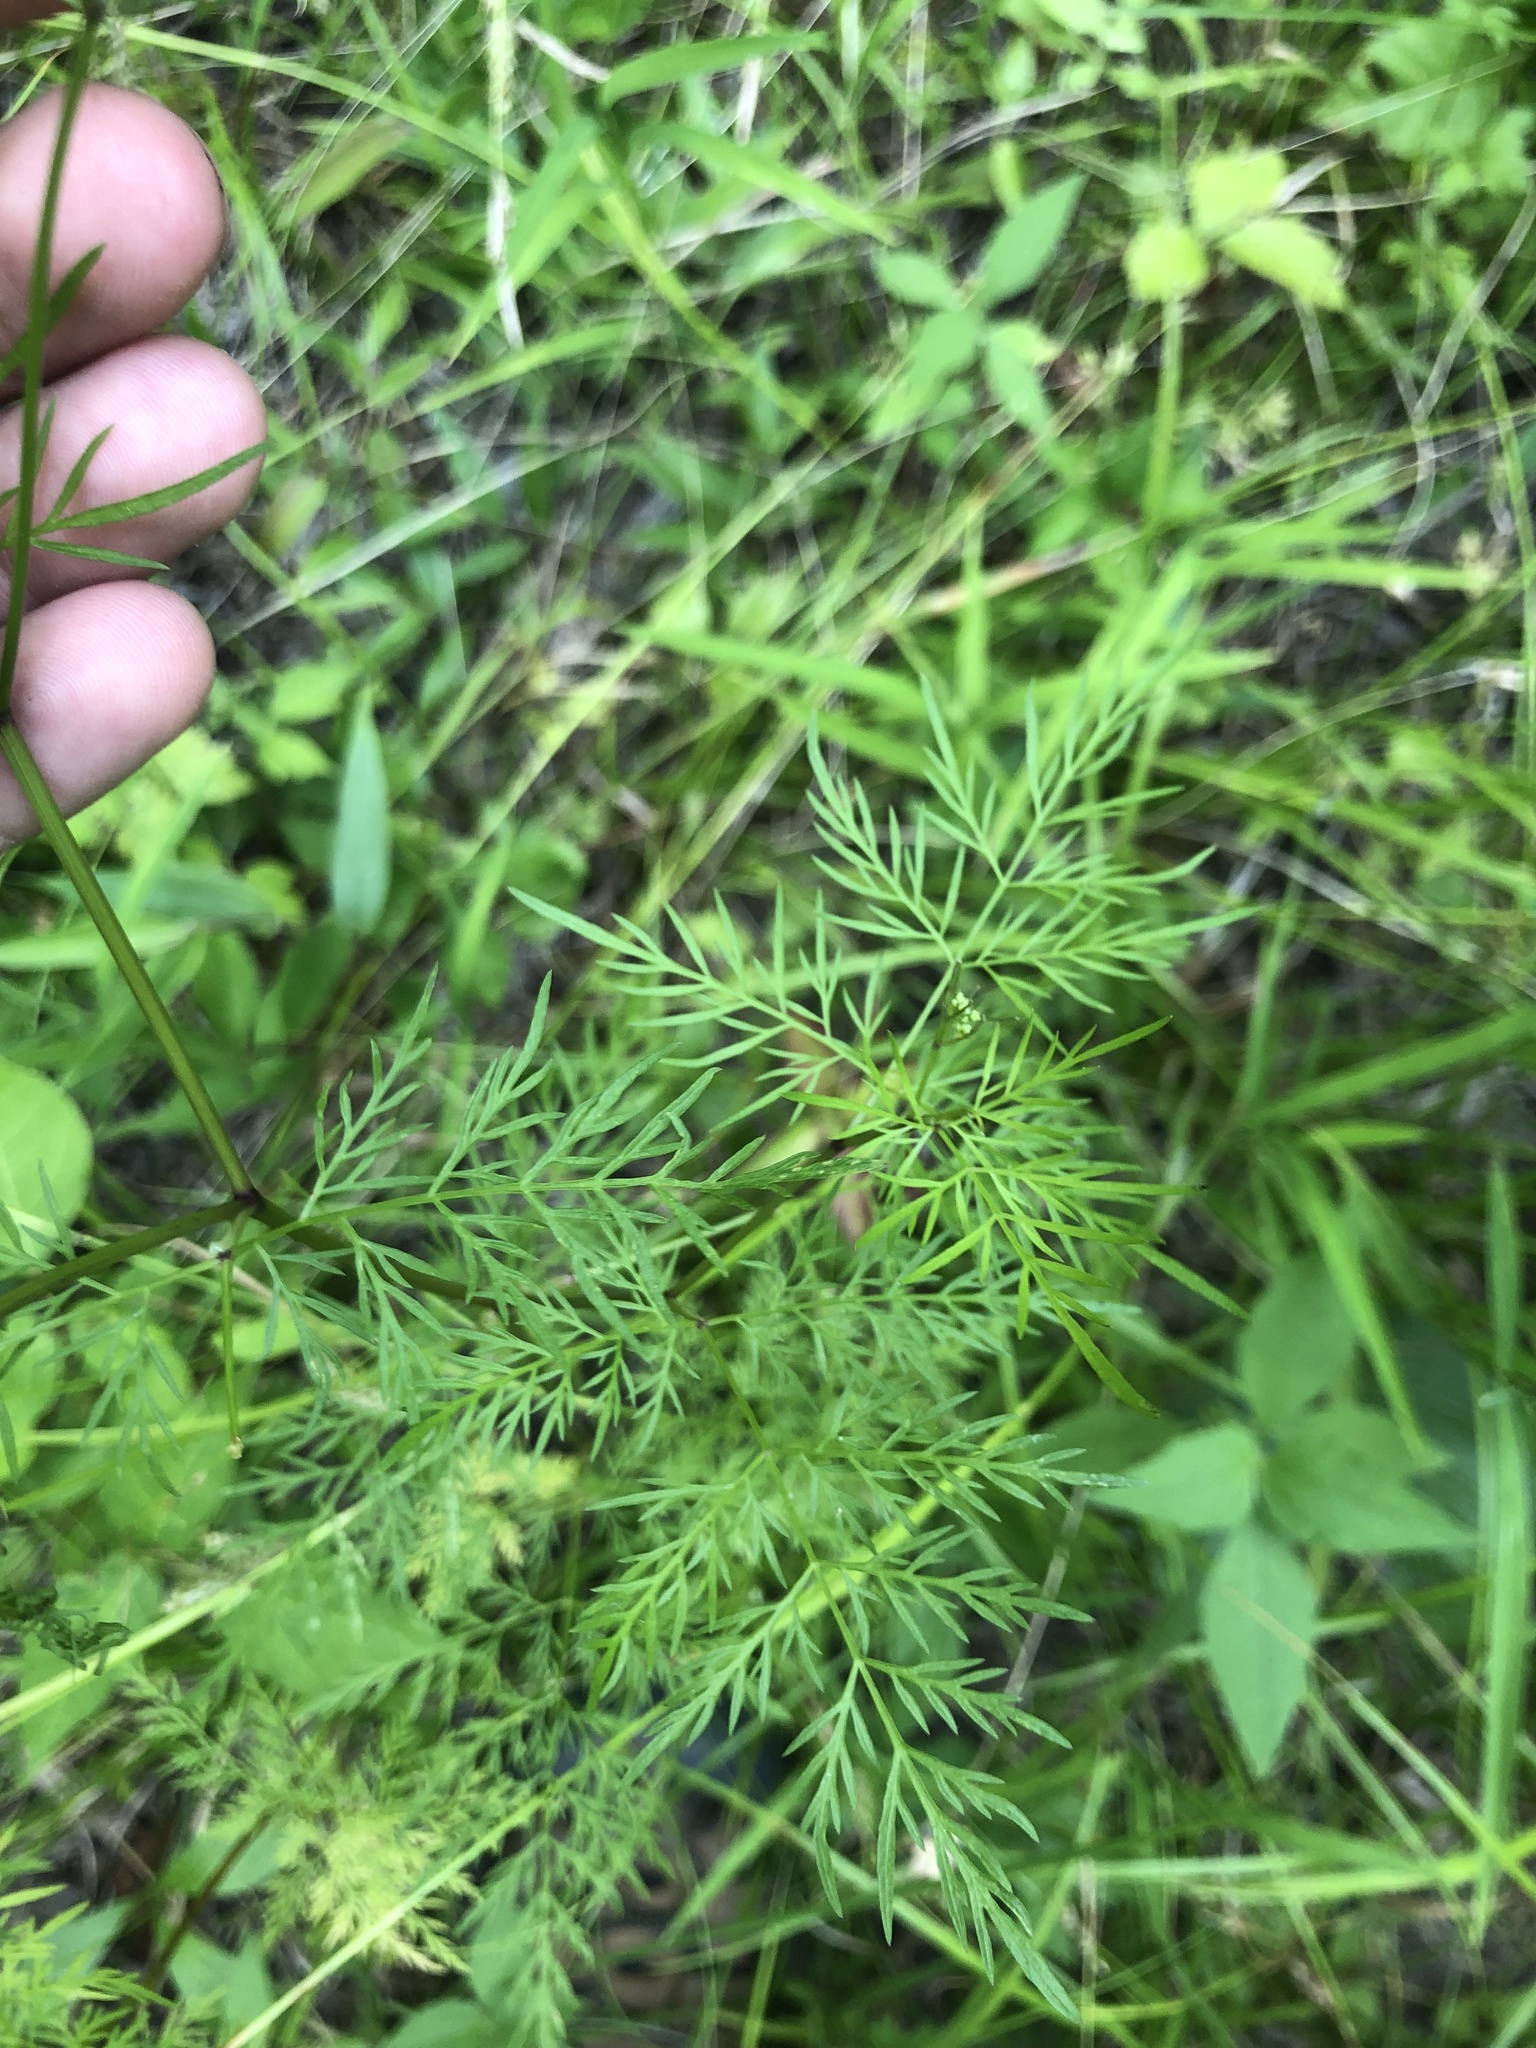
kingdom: Plantae
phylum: Tracheophyta
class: Magnoliopsida
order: Apiales
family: Apiaceae
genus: Trepocarpus
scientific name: Trepocarpus aethusae
